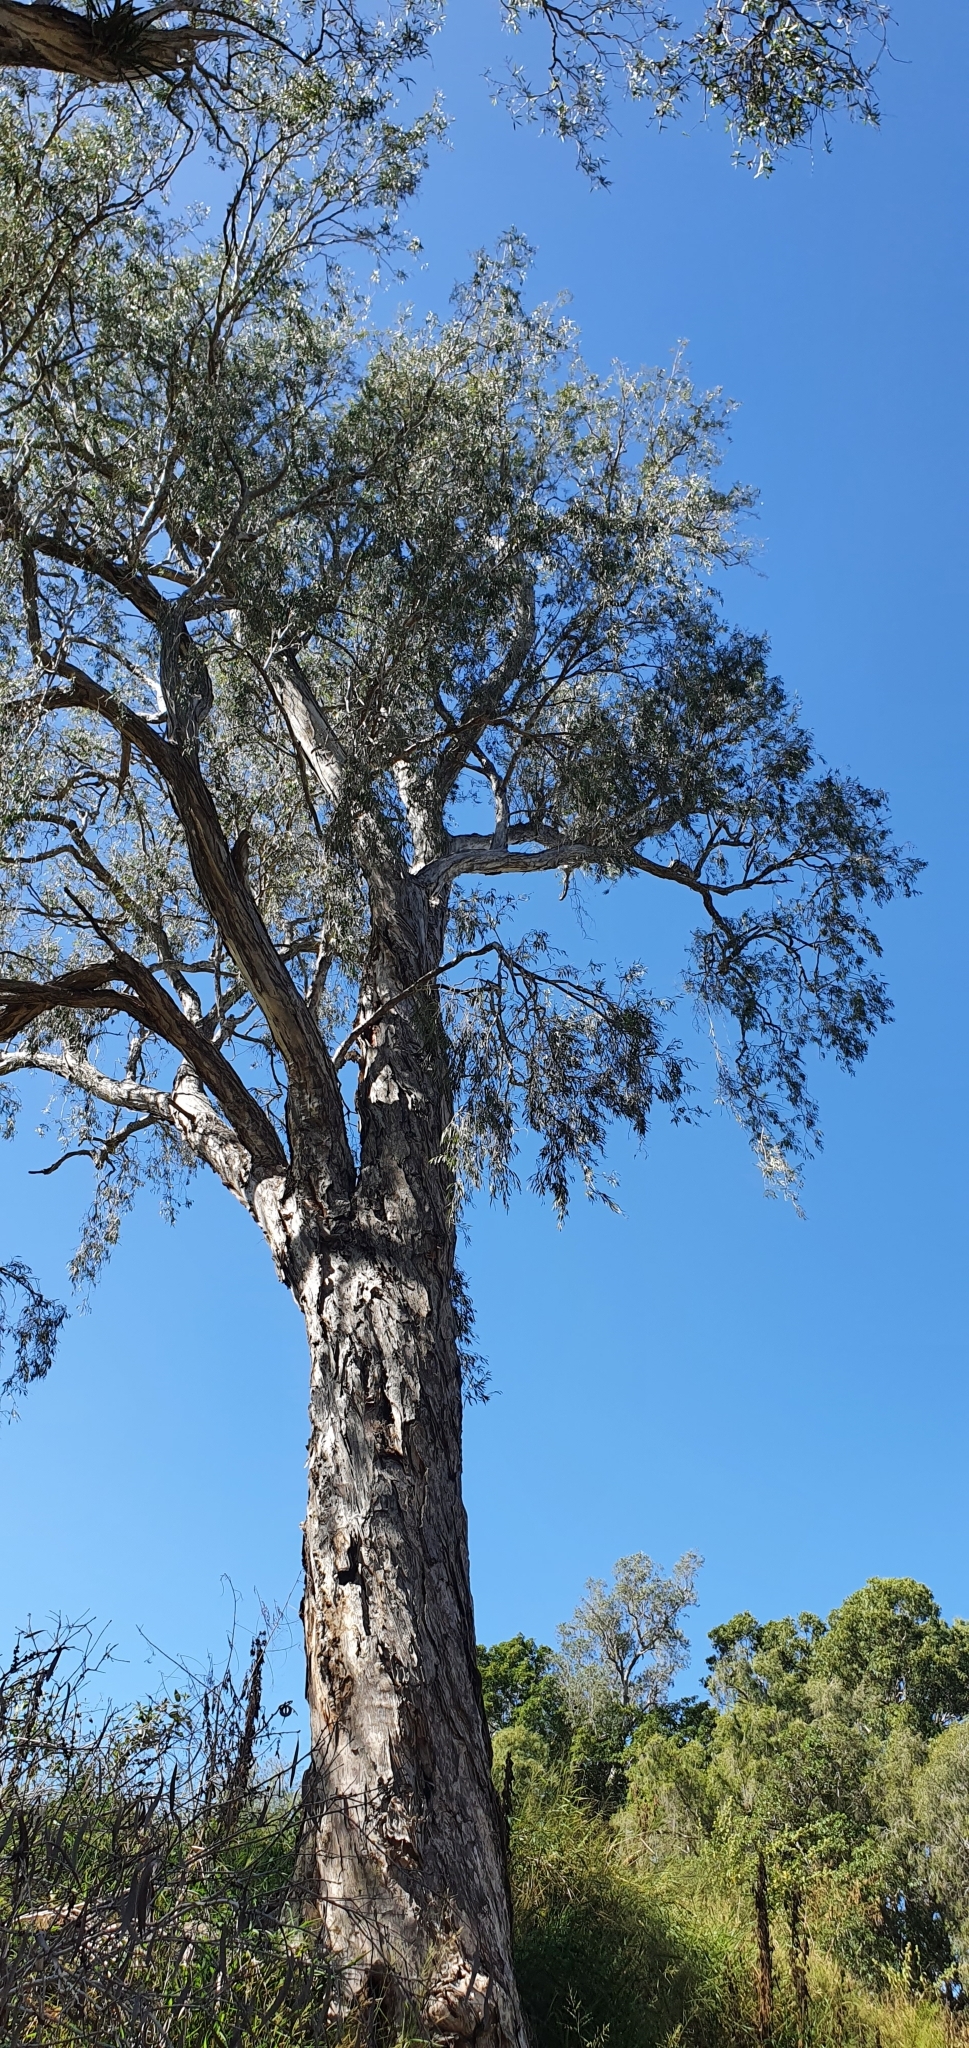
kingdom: Plantae
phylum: Tracheophyta
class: Magnoliopsida
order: Myrtales
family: Myrtaceae
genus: Melaleuca
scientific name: Melaleuca fluviatilis
